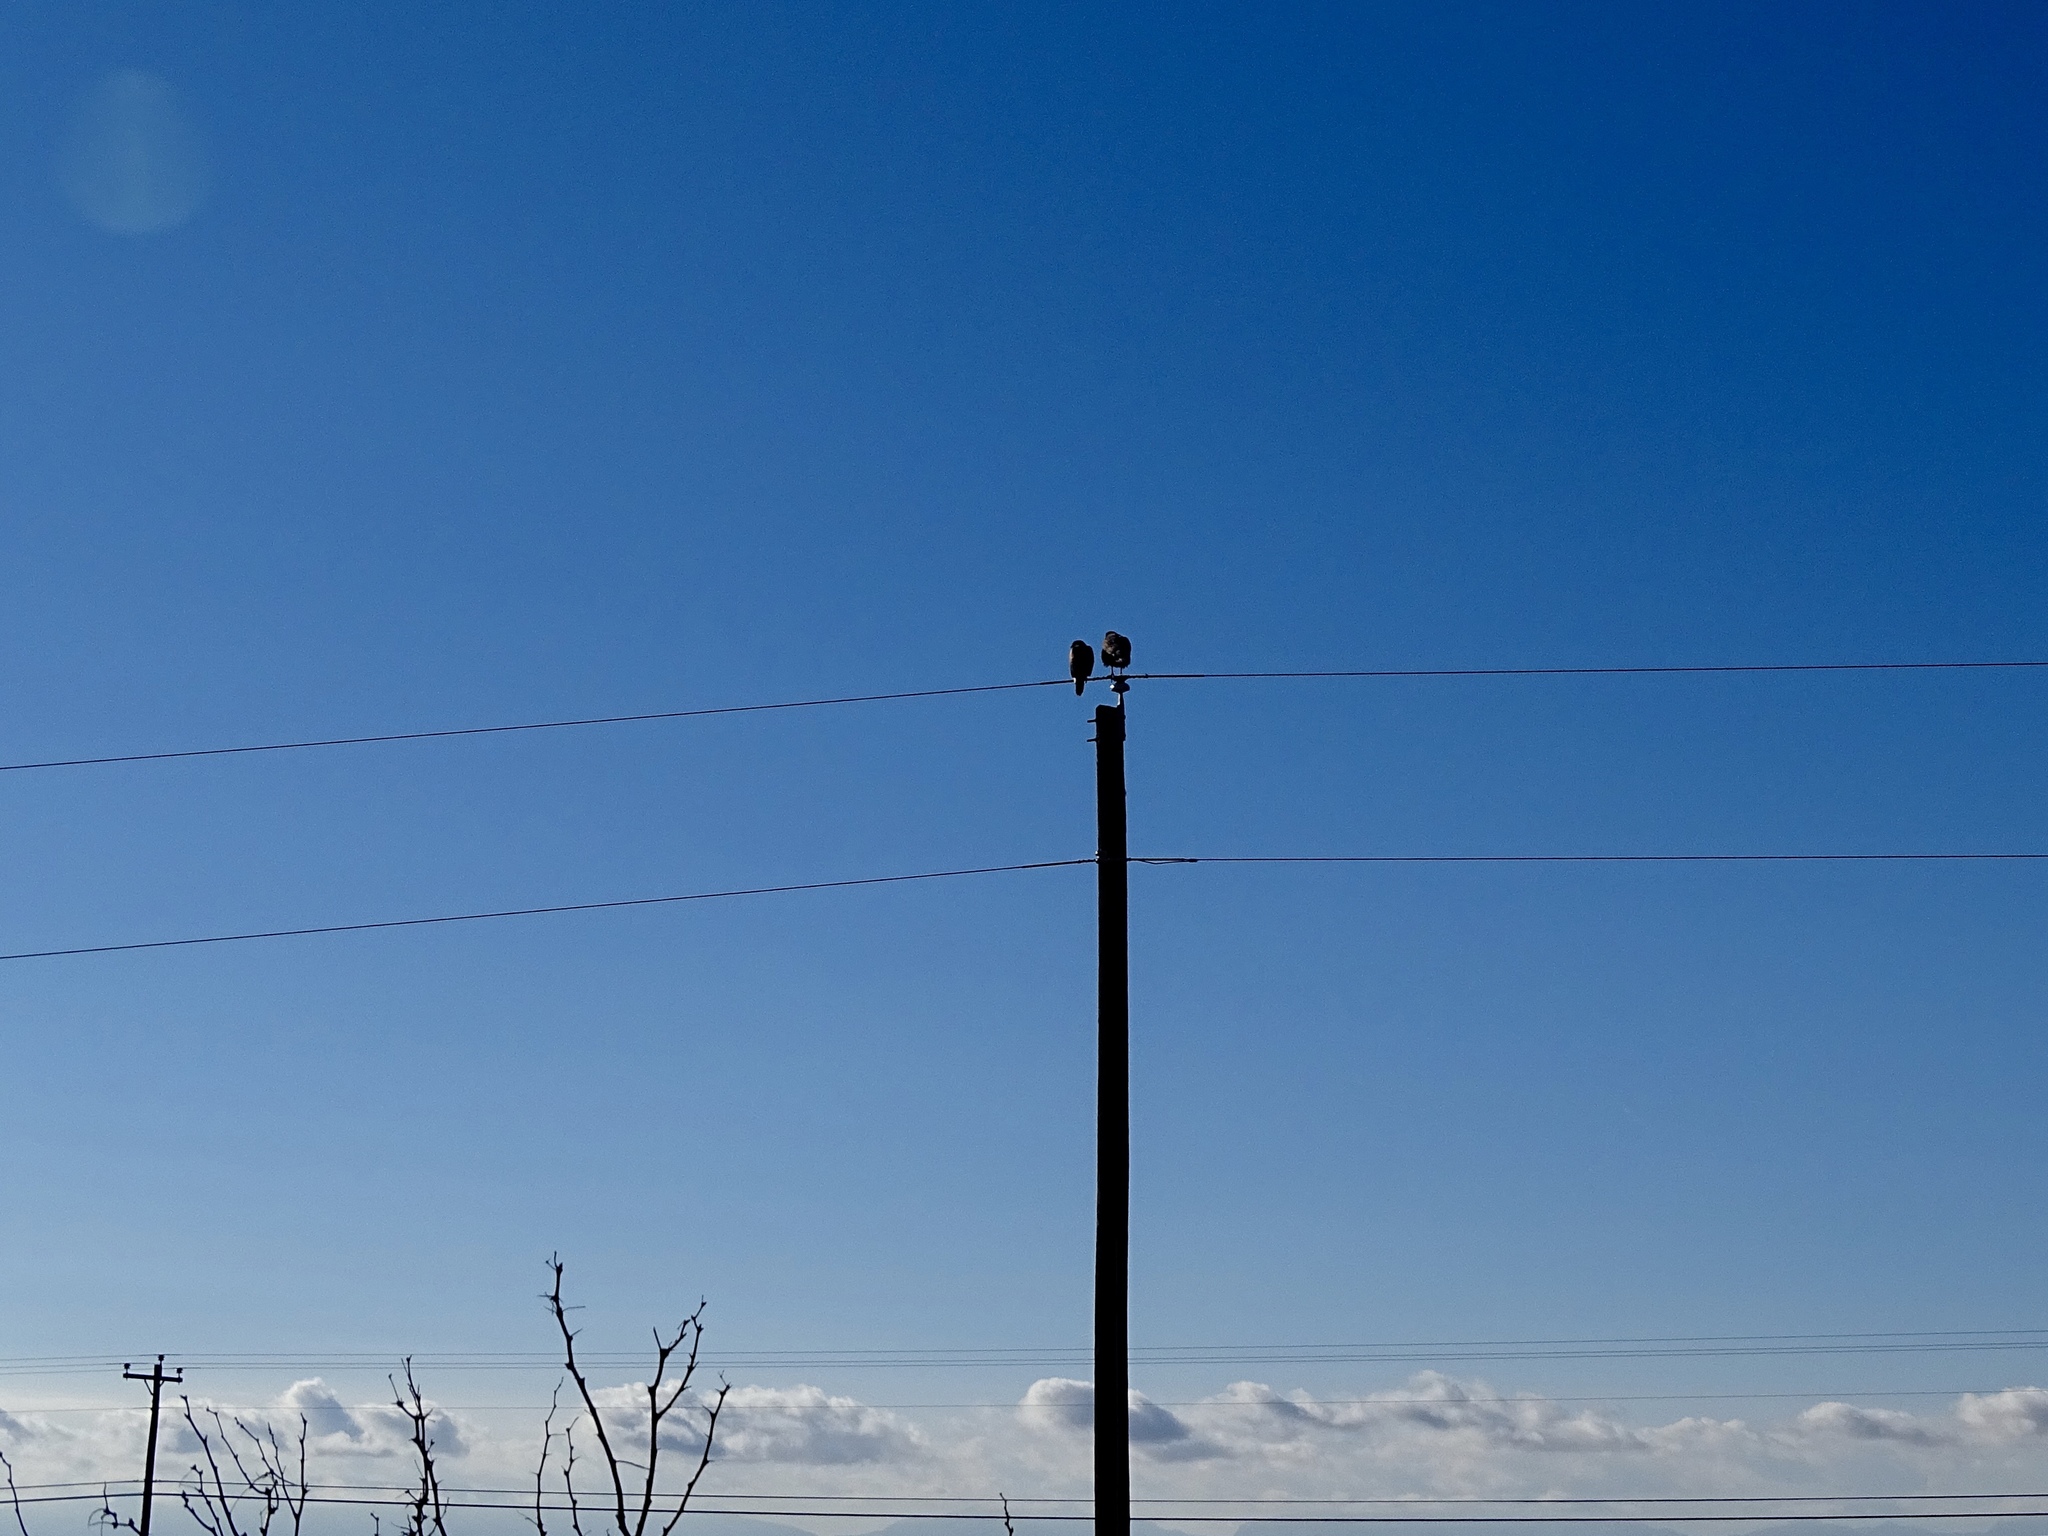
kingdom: Animalia
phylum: Chordata
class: Aves
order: Accipitriformes
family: Accipitridae
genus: Parabuteo
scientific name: Parabuteo unicinctus
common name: Harris's hawk
